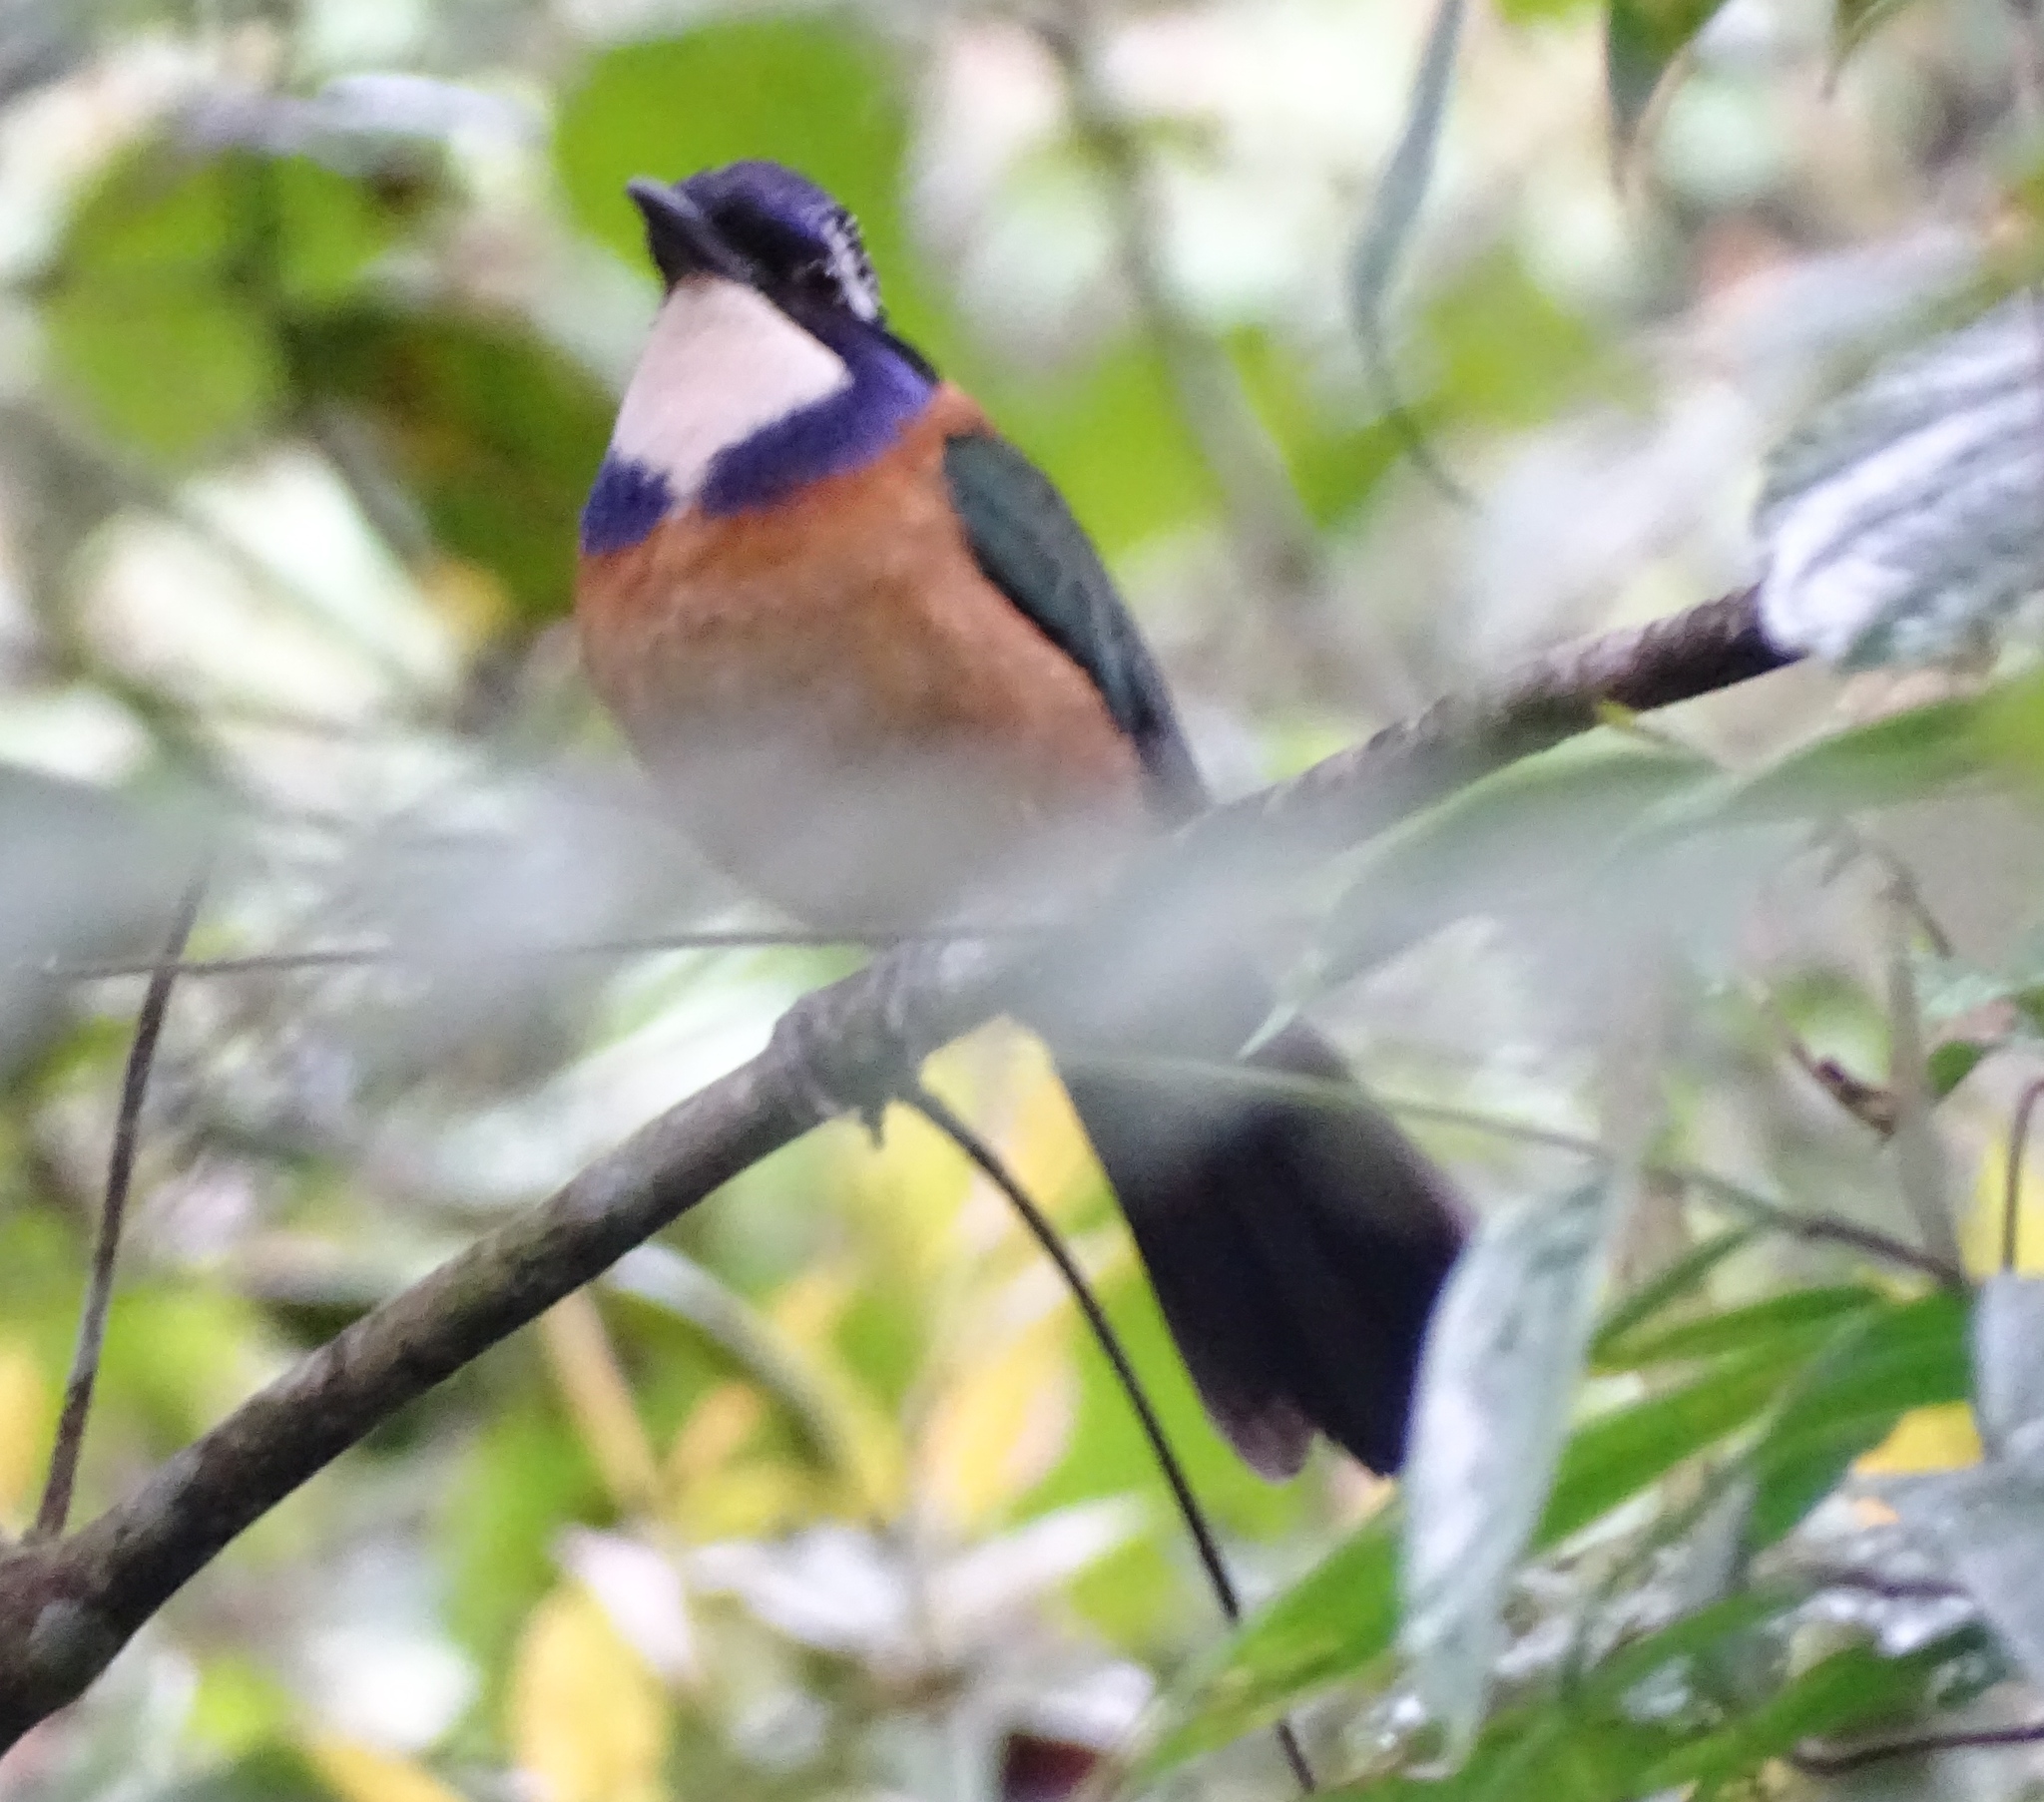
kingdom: Animalia
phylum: Chordata
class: Aves
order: Coraciiformes
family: Brachypteraciidae
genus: Atelornis
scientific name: Atelornis pittoides
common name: Pitta-like ground-roller
